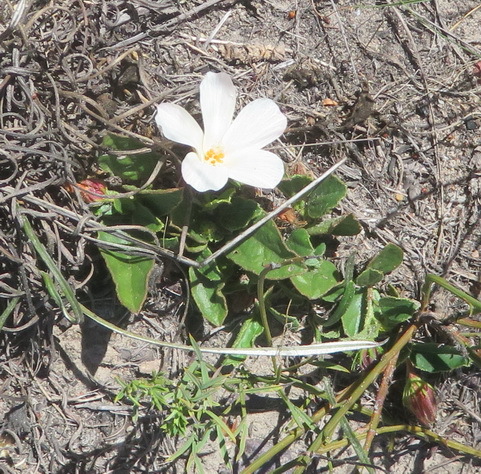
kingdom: Plantae
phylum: Tracheophyta
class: Magnoliopsida
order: Malvales
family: Malvaceae
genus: Hibiscus
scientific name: Hibiscus aethiopicus
